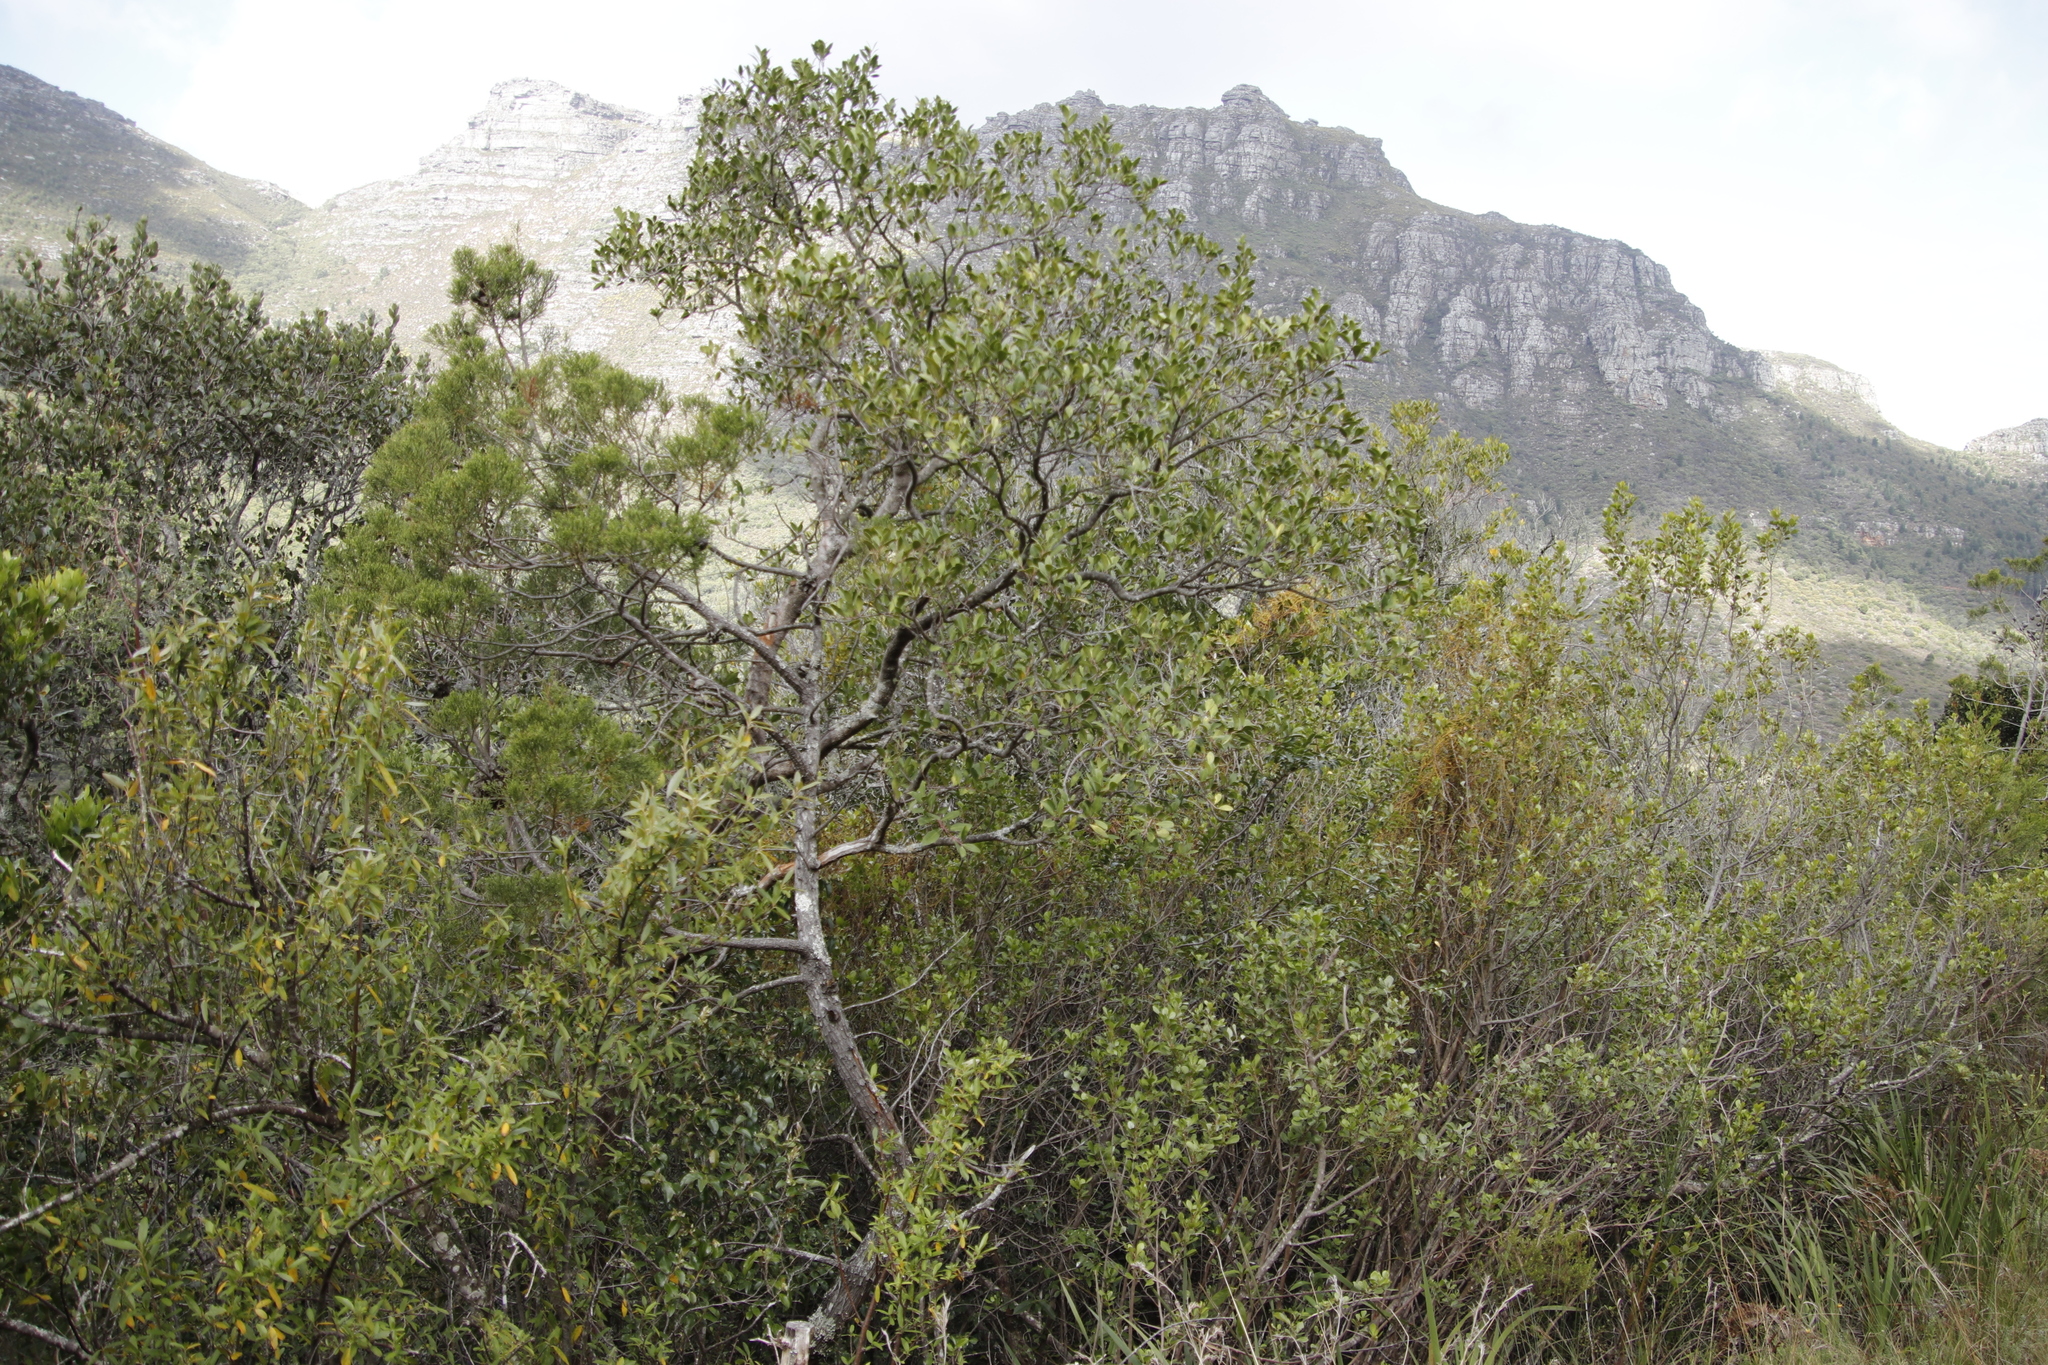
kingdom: Plantae
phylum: Tracheophyta
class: Pinopsida
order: Pinales
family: Cupressaceae
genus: Widdringtonia
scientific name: Widdringtonia nodiflora
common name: Cape cypress
